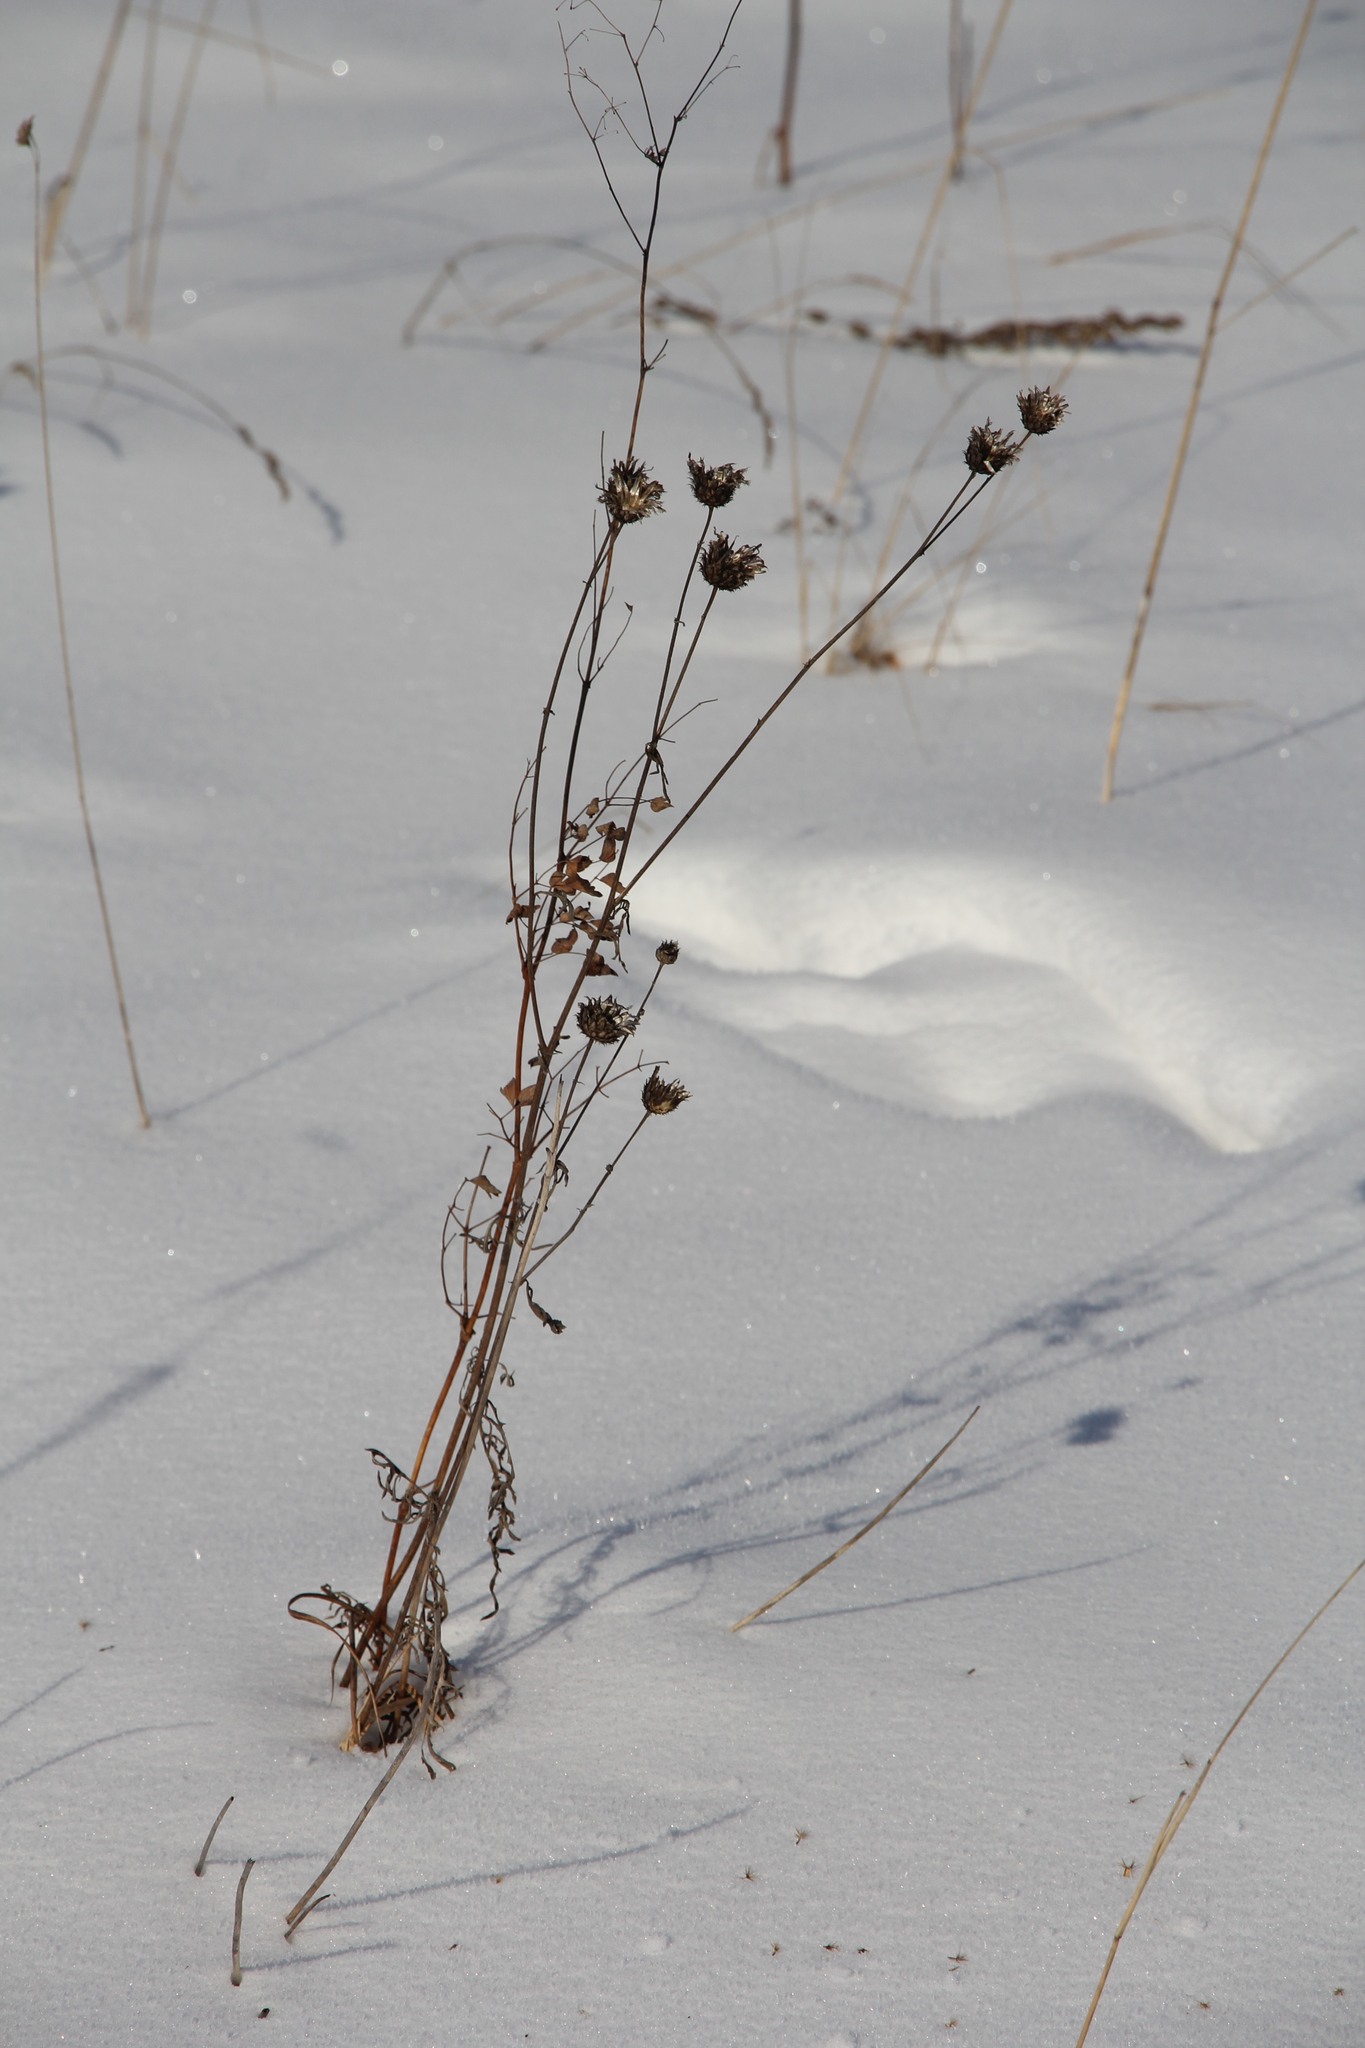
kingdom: Plantae
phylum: Tracheophyta
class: Magnoliopsida
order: Asterales
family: Asteraceae
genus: Centaurea
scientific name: Centaurea scabiosa
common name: Greater knapweed
